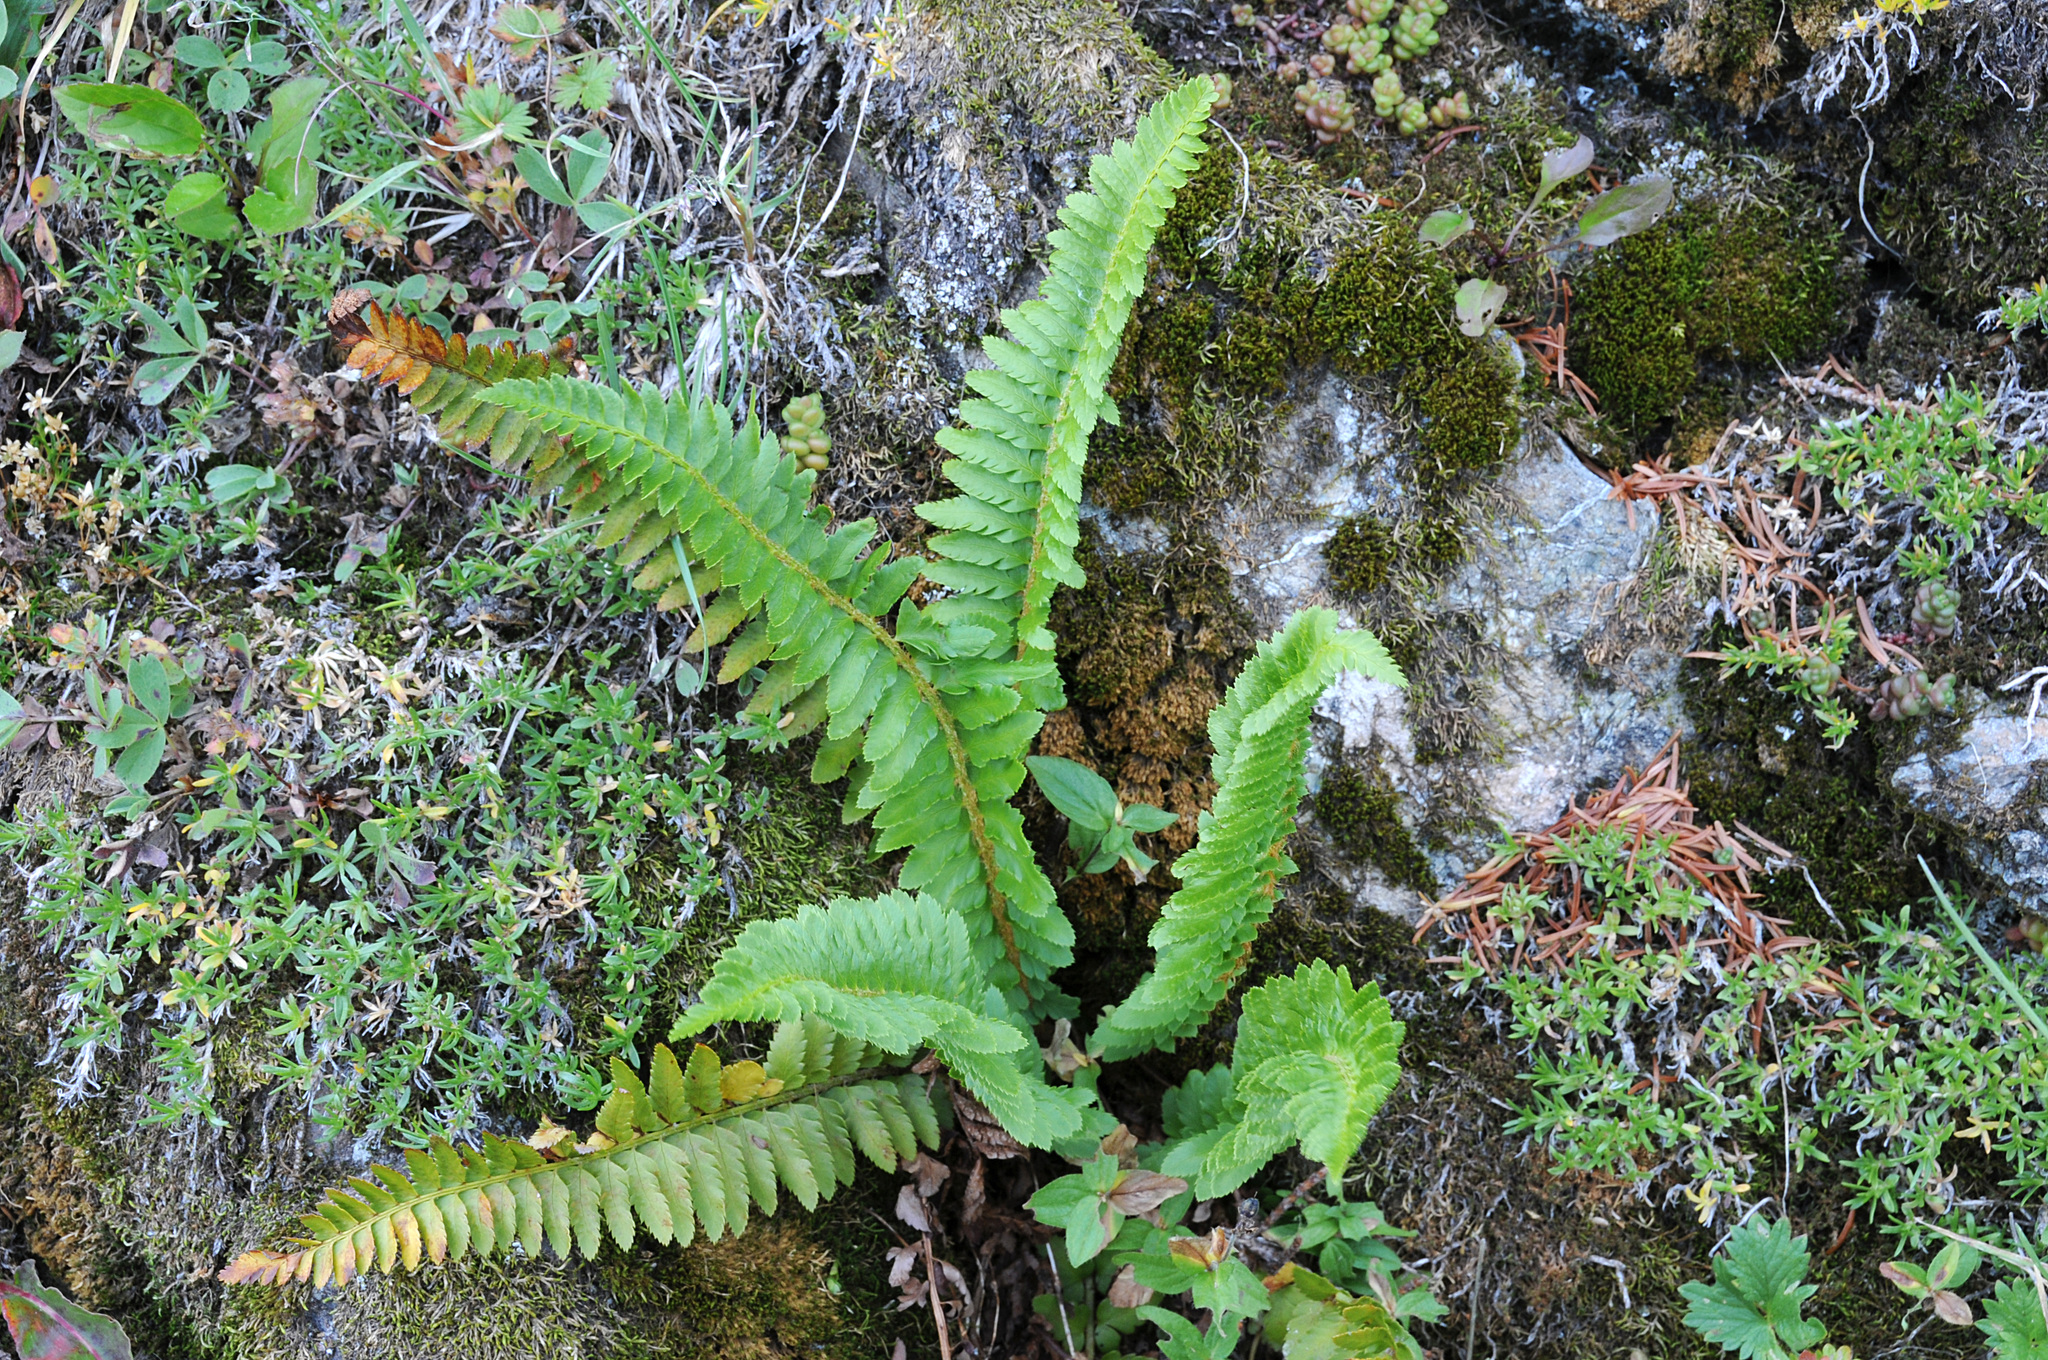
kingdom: Plantae
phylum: Tracheophyta
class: Polypodiopsida
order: Polypodiales
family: Dryopteridaceae
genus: Polystichum
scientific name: Polystichum
